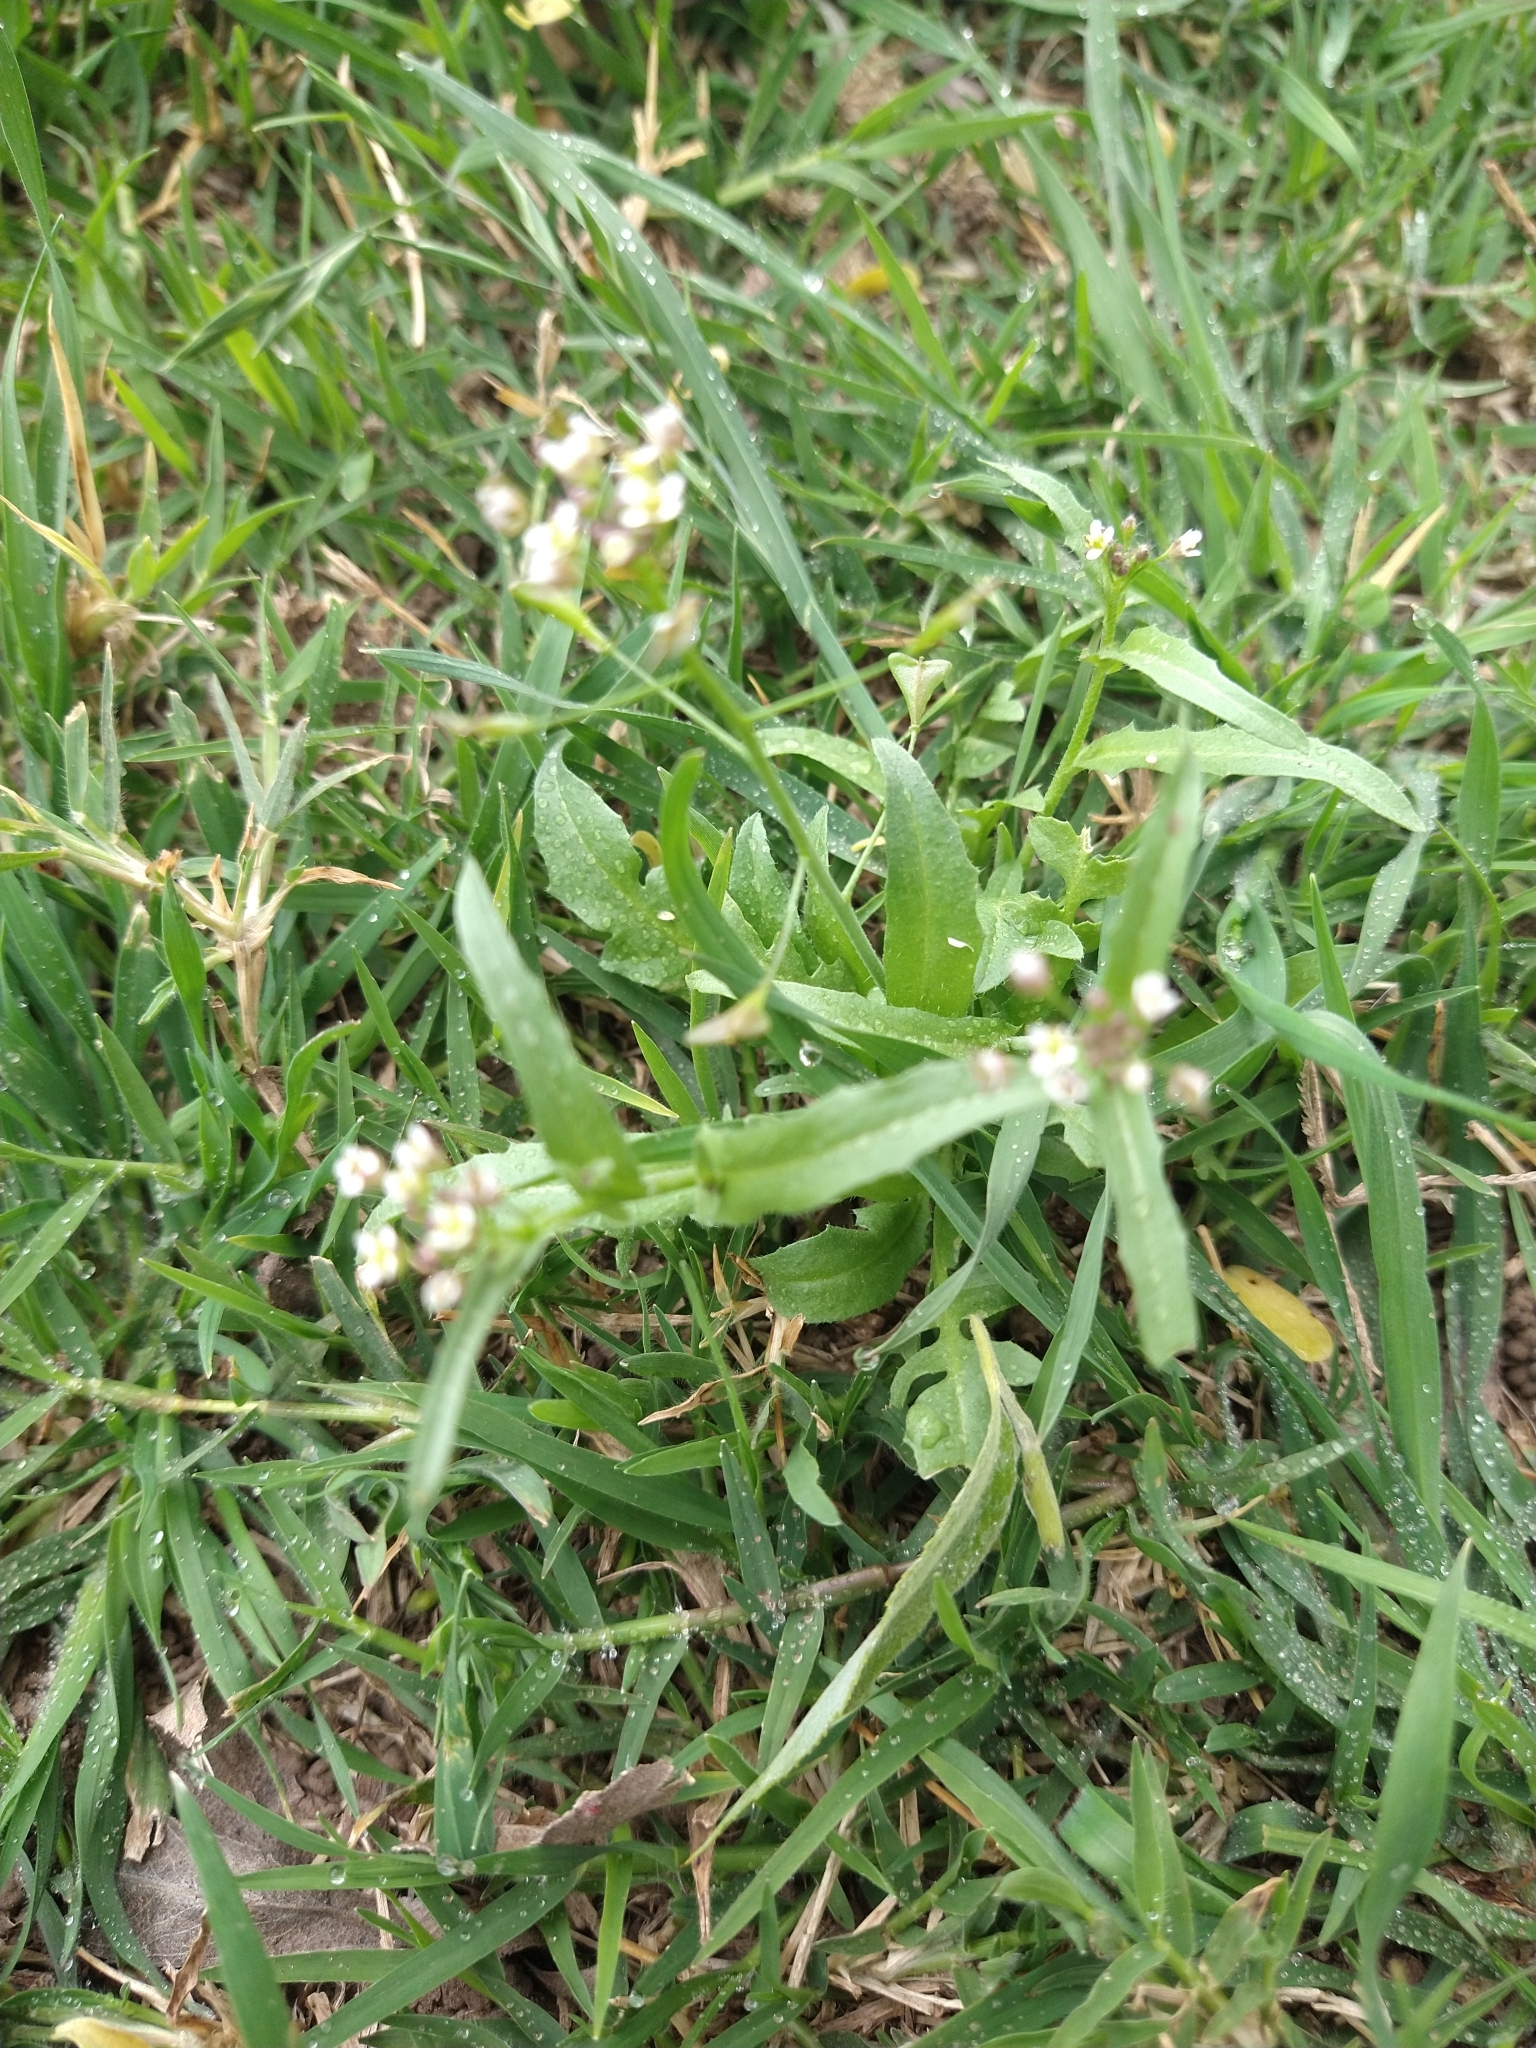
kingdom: Plantae
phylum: Tracheophyta
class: Magnoliopsida
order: Brassicales
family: Brassicaceae
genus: Capsella
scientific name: Capsella bursa-pastoris
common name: Shepherd's purse
